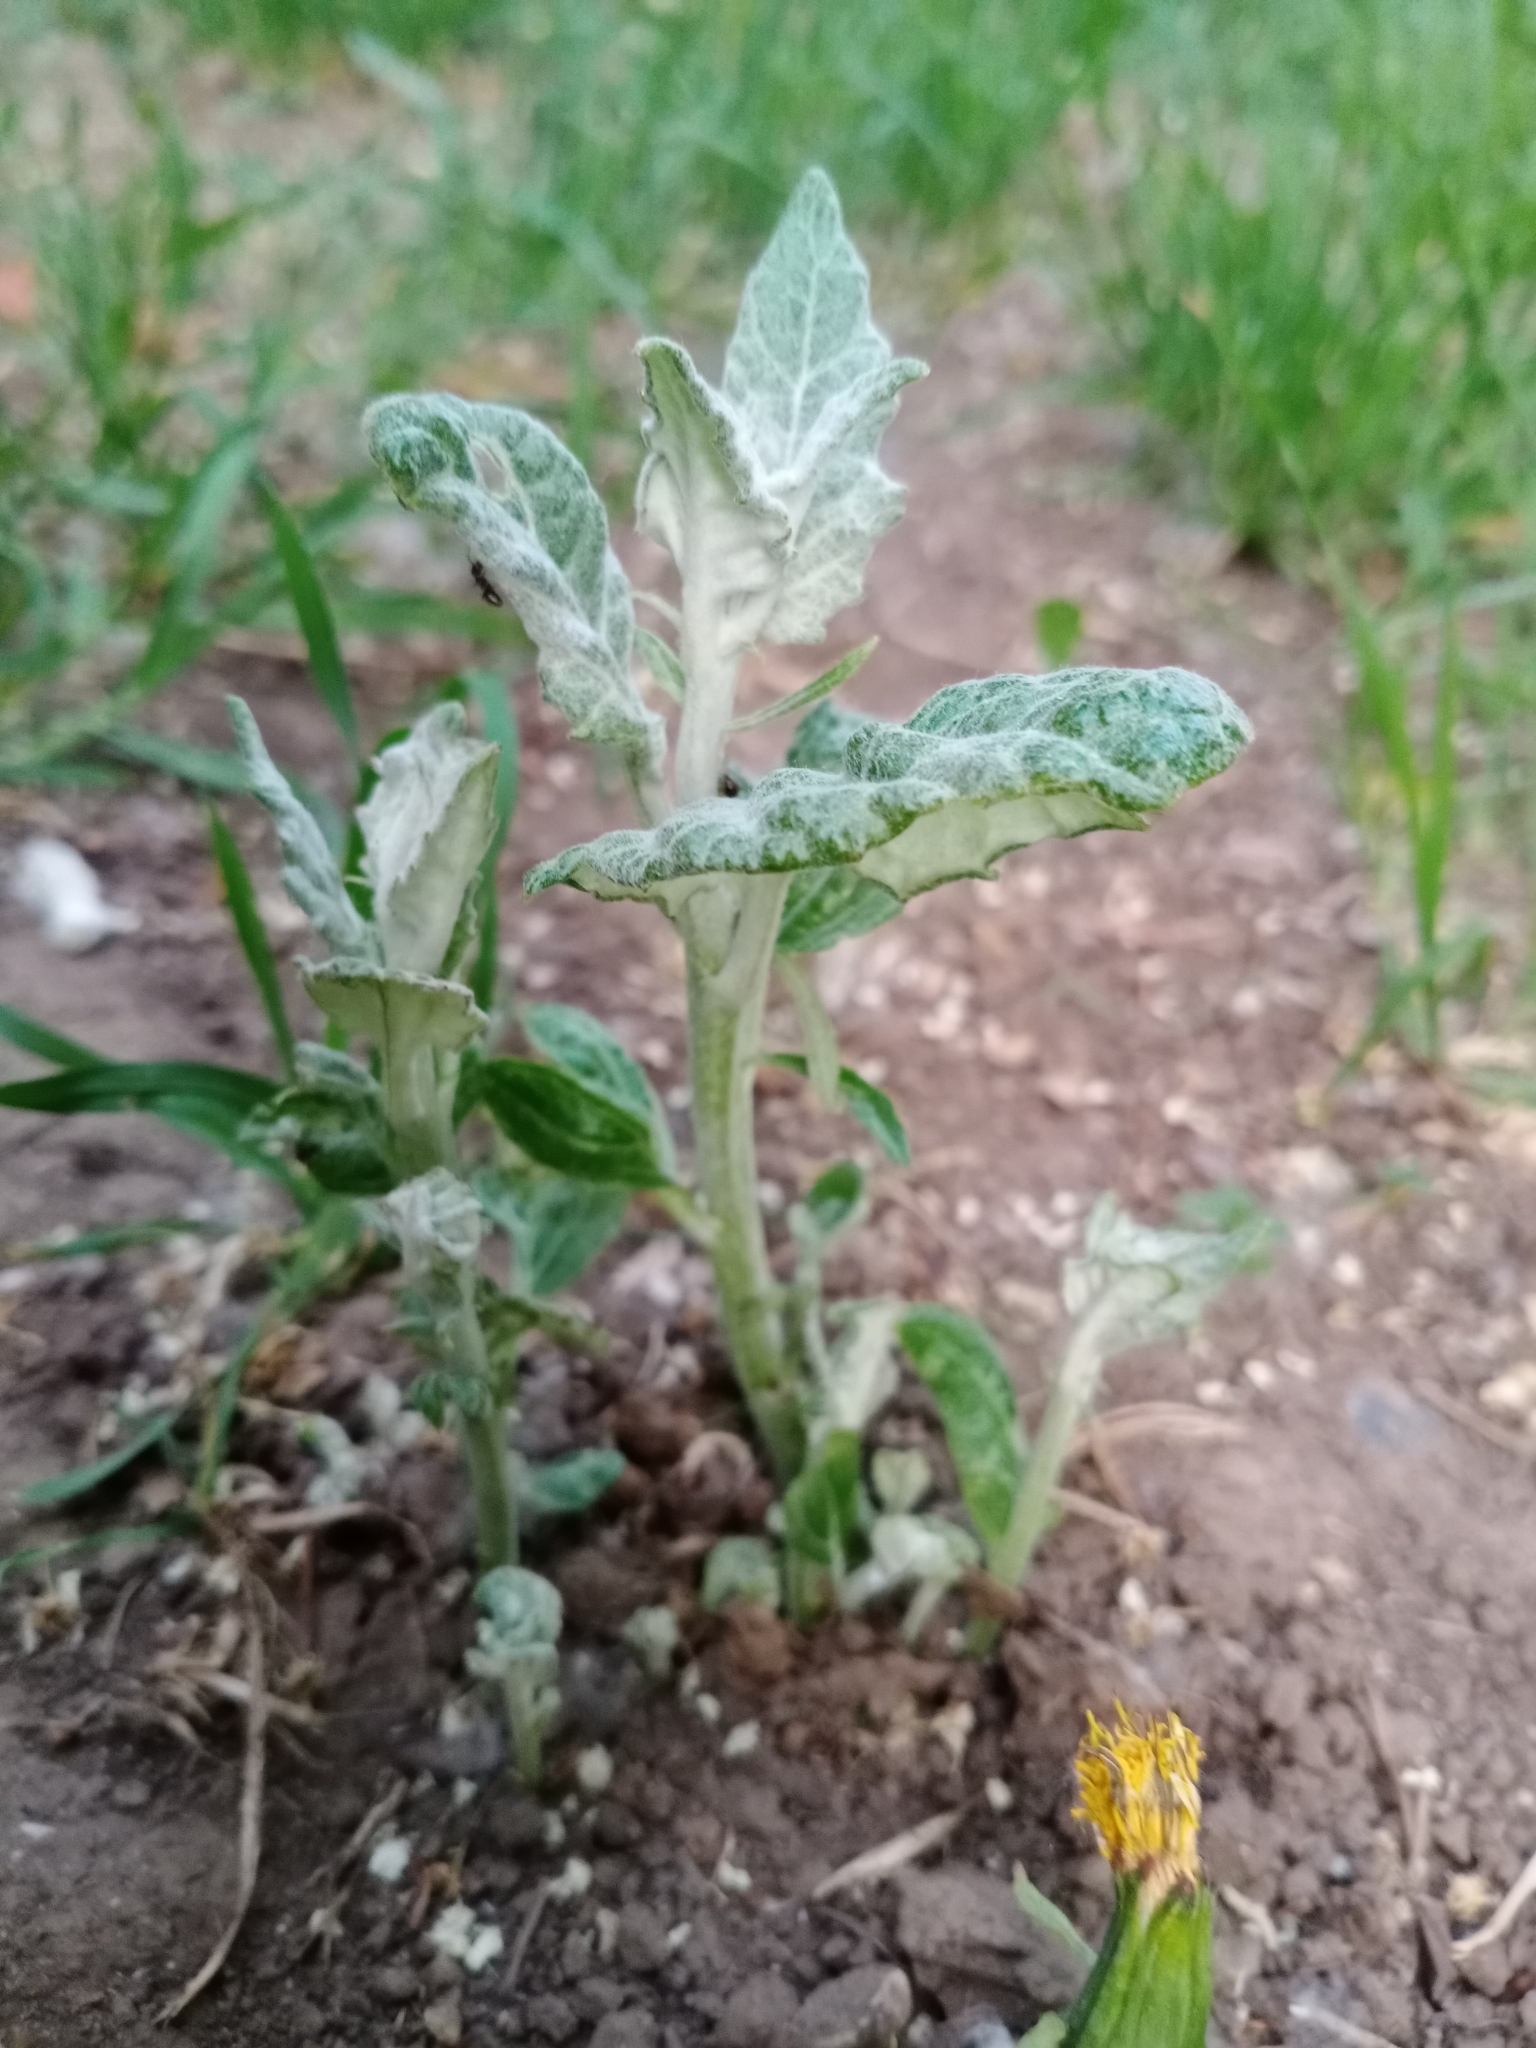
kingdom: Plantae
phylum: Tracheophyta
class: Magnoliopsida
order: Malpighiales
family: Salicaceae
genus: Populus
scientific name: Populus alba
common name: White poplar
